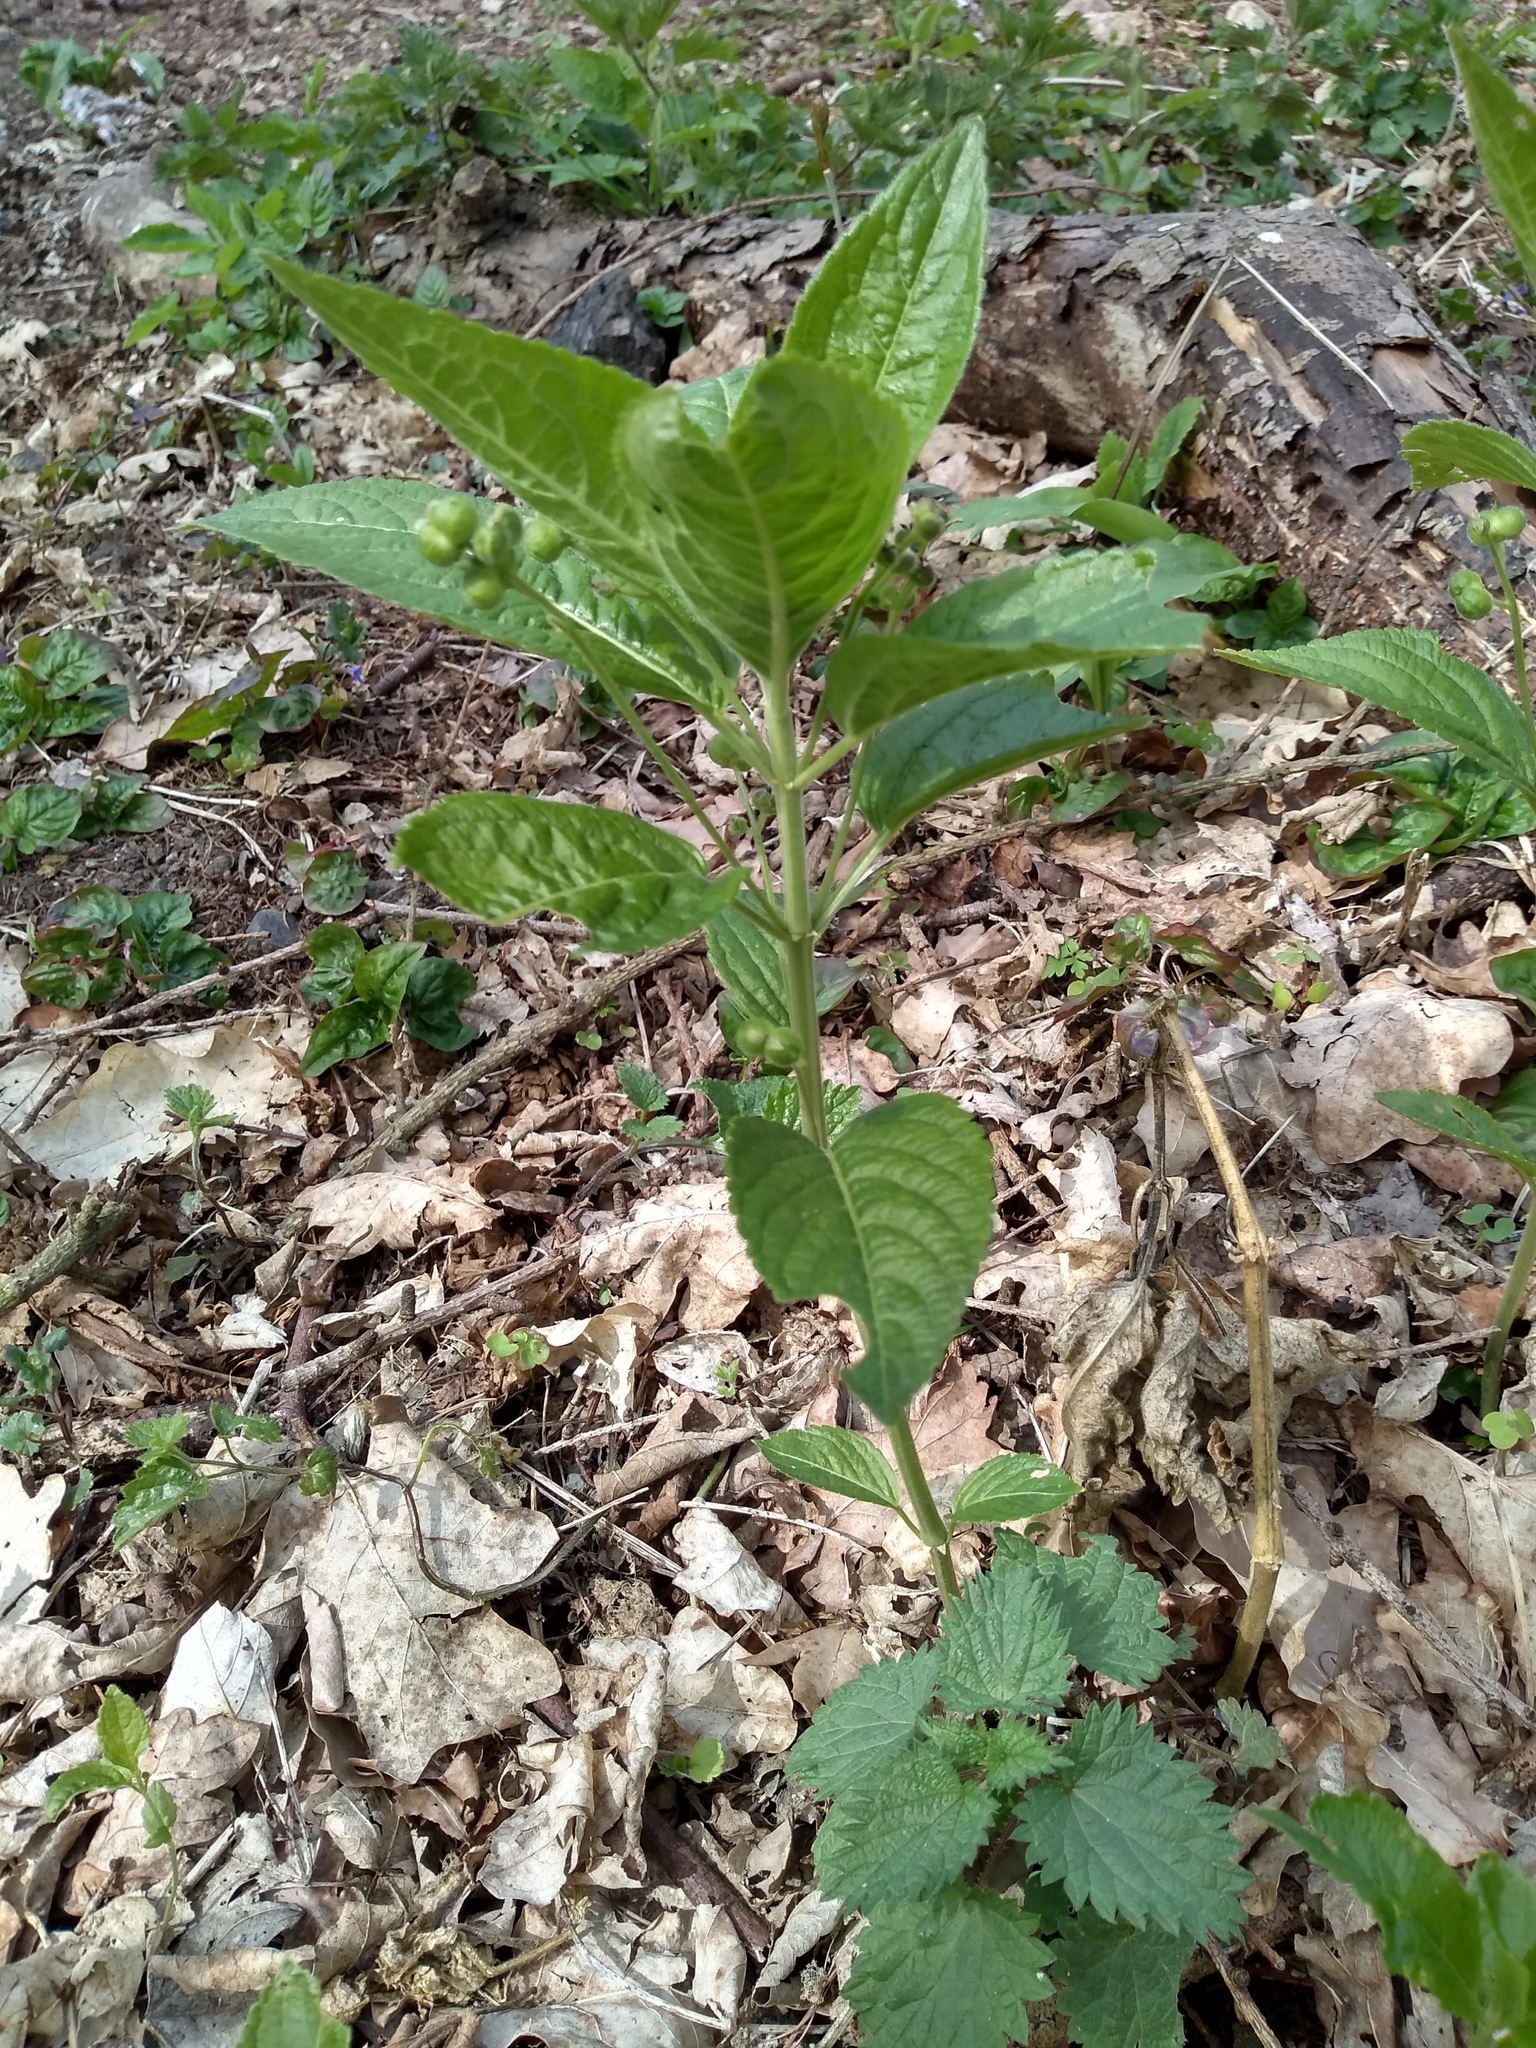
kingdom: Plantae
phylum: Tracheophyta
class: Magnoliopsida
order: Malpighiales
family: Euphorbiaceae
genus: Mercurialis
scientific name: Mercurialis perennis
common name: Dog mercury
